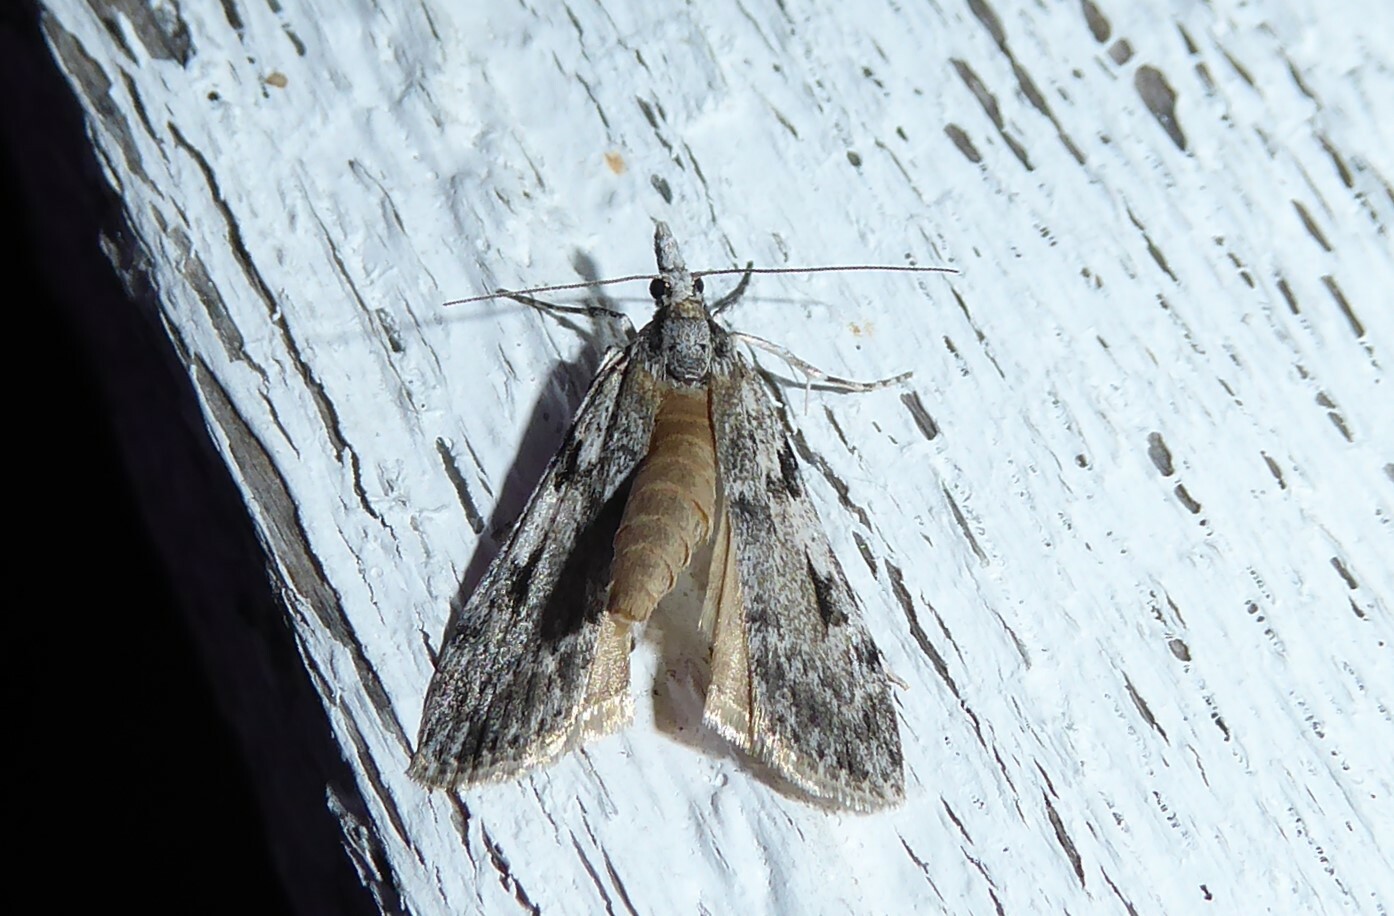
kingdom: Animalia
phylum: Arthropoda
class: Insecta
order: Lepidoptera
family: Crambidae
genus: Scoparia
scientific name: Scoparia halopis
